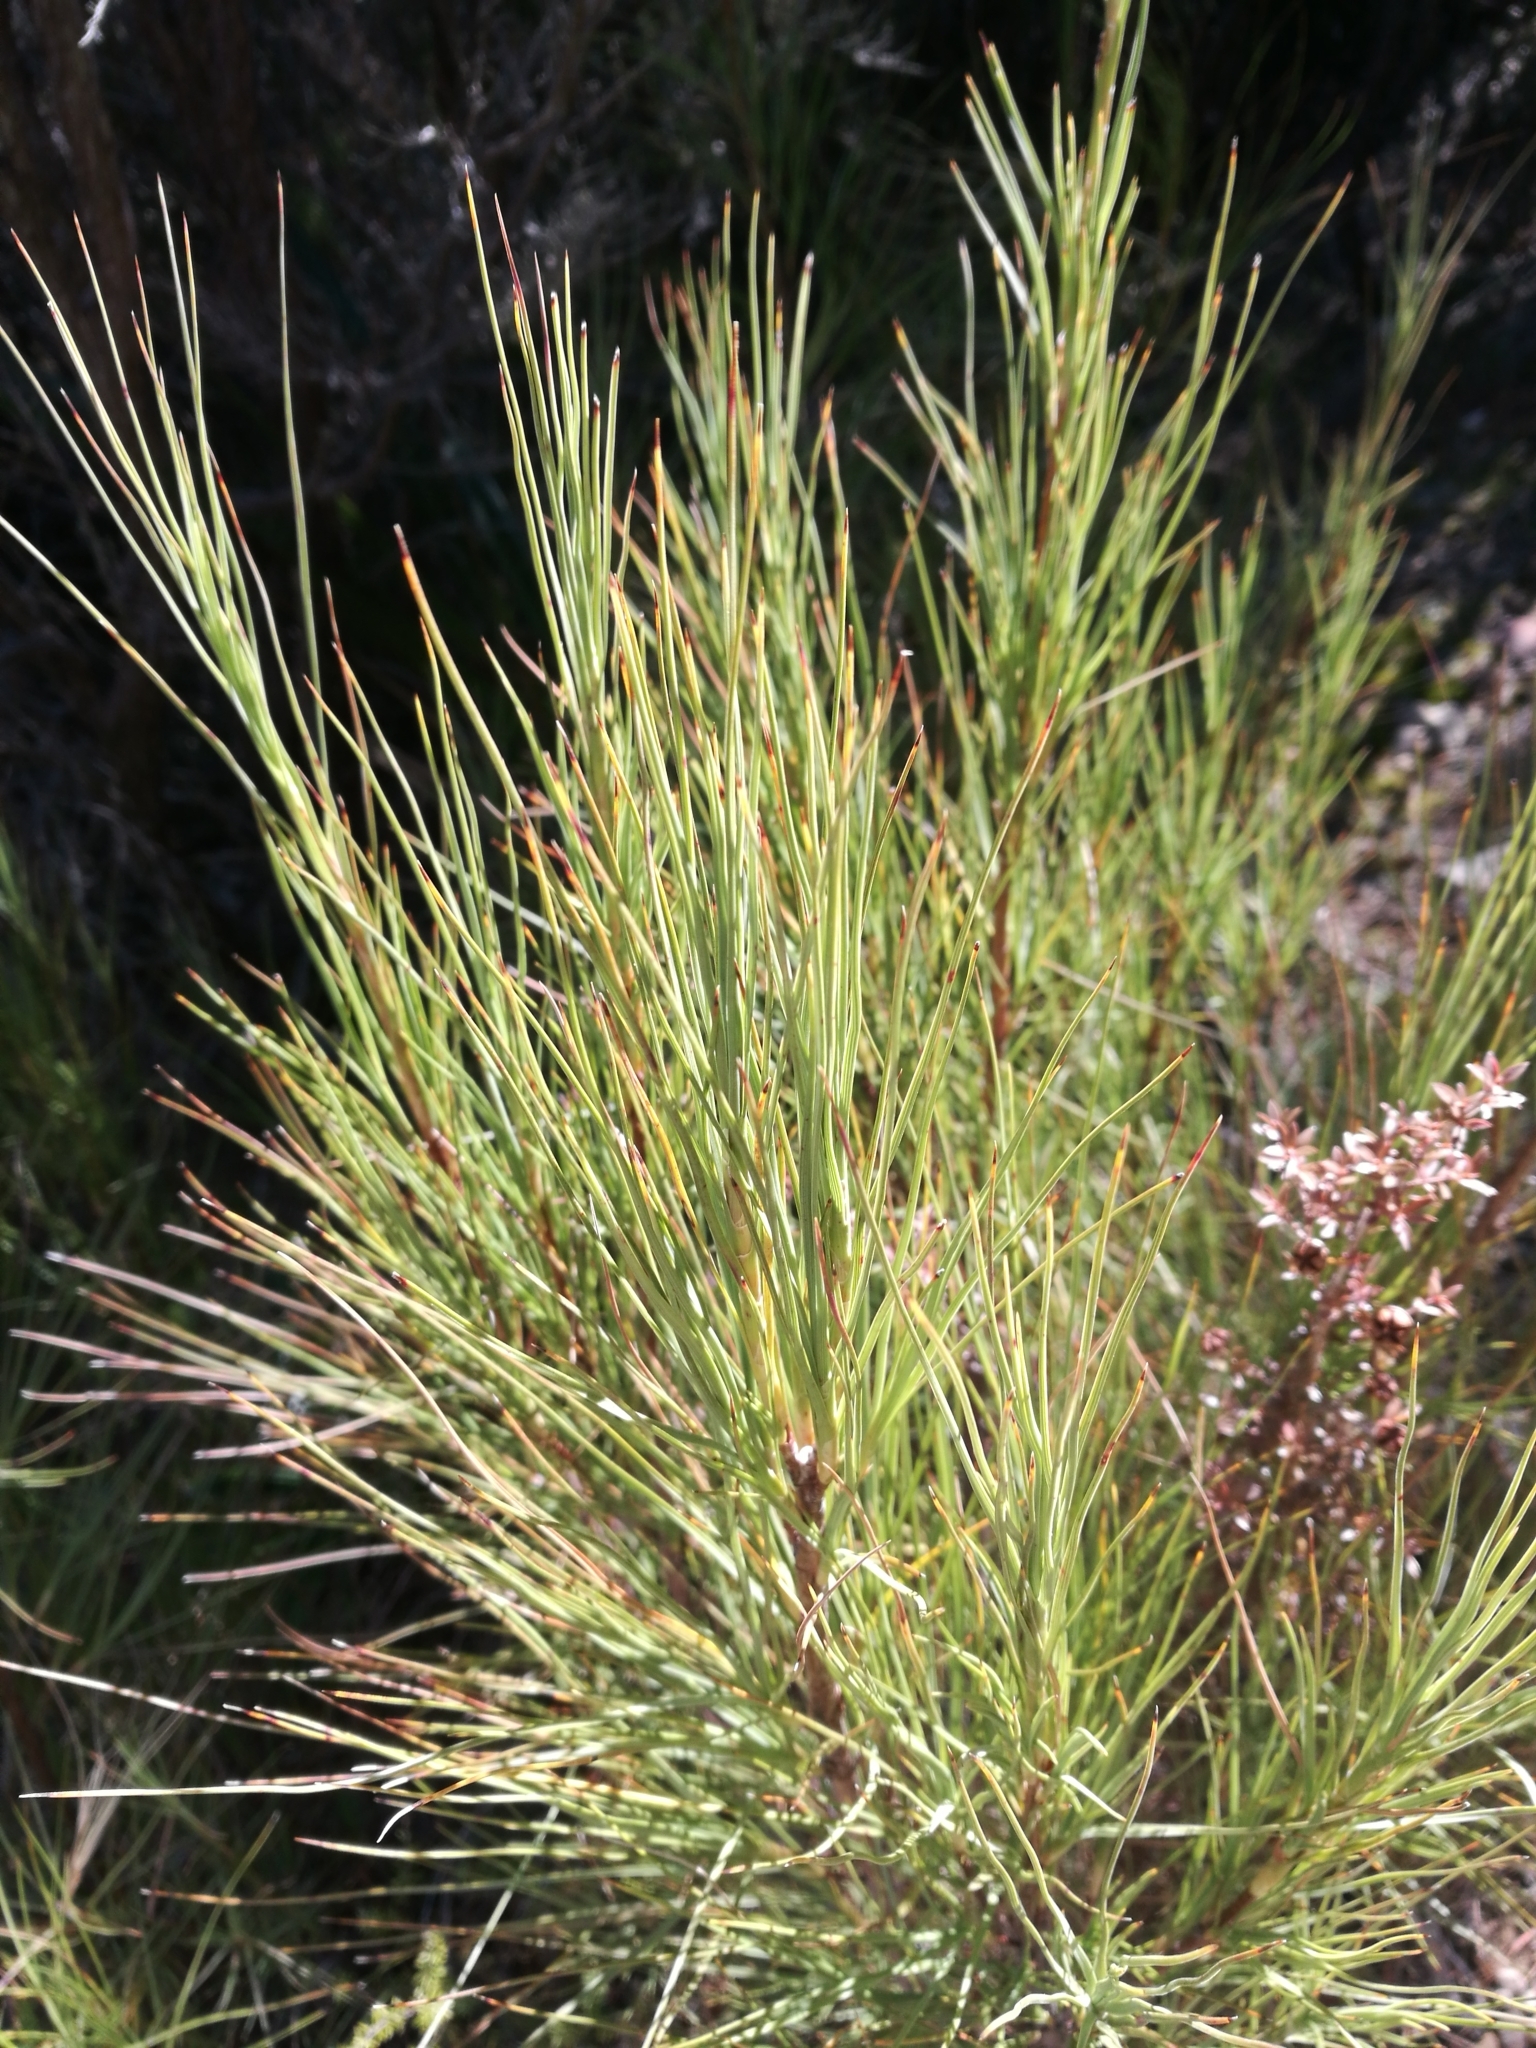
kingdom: Plantae
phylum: Tracheophyta
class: Magnoliopsida
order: Ericales
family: Ericaceae
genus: Dracophyllum
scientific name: Dracophyllum longifolium
